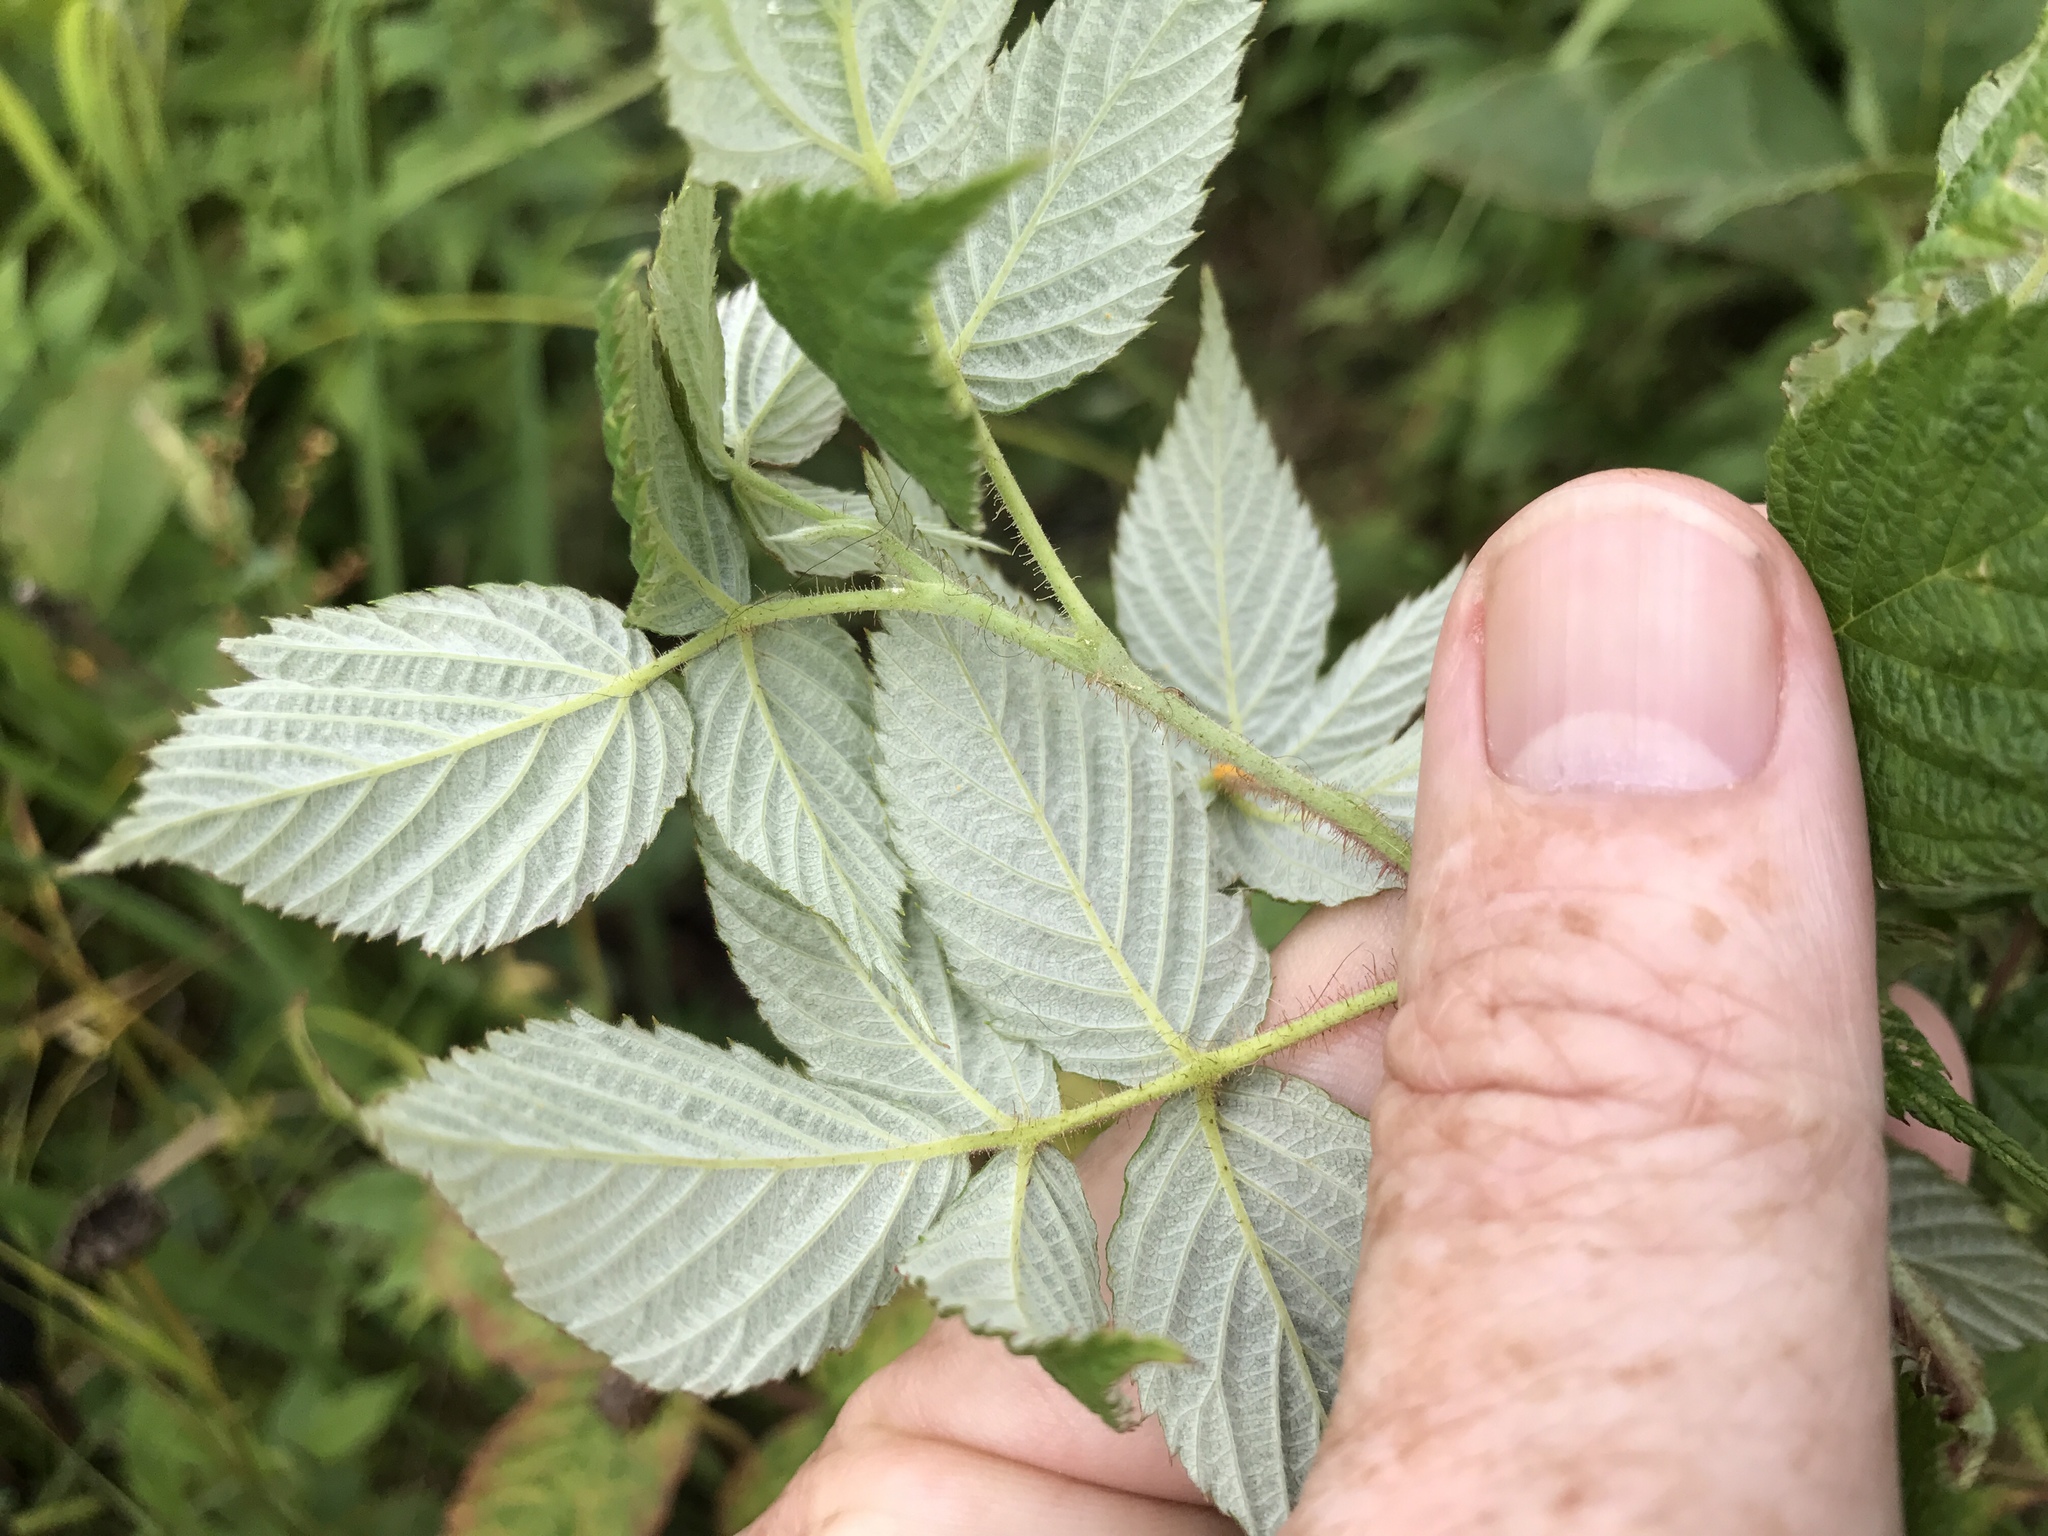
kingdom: Plantae
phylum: Tracheophyta
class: Magnoliopsida
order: Rosales
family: Rosaceae
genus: Rubus
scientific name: Rubus idaeus
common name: Raspberry
